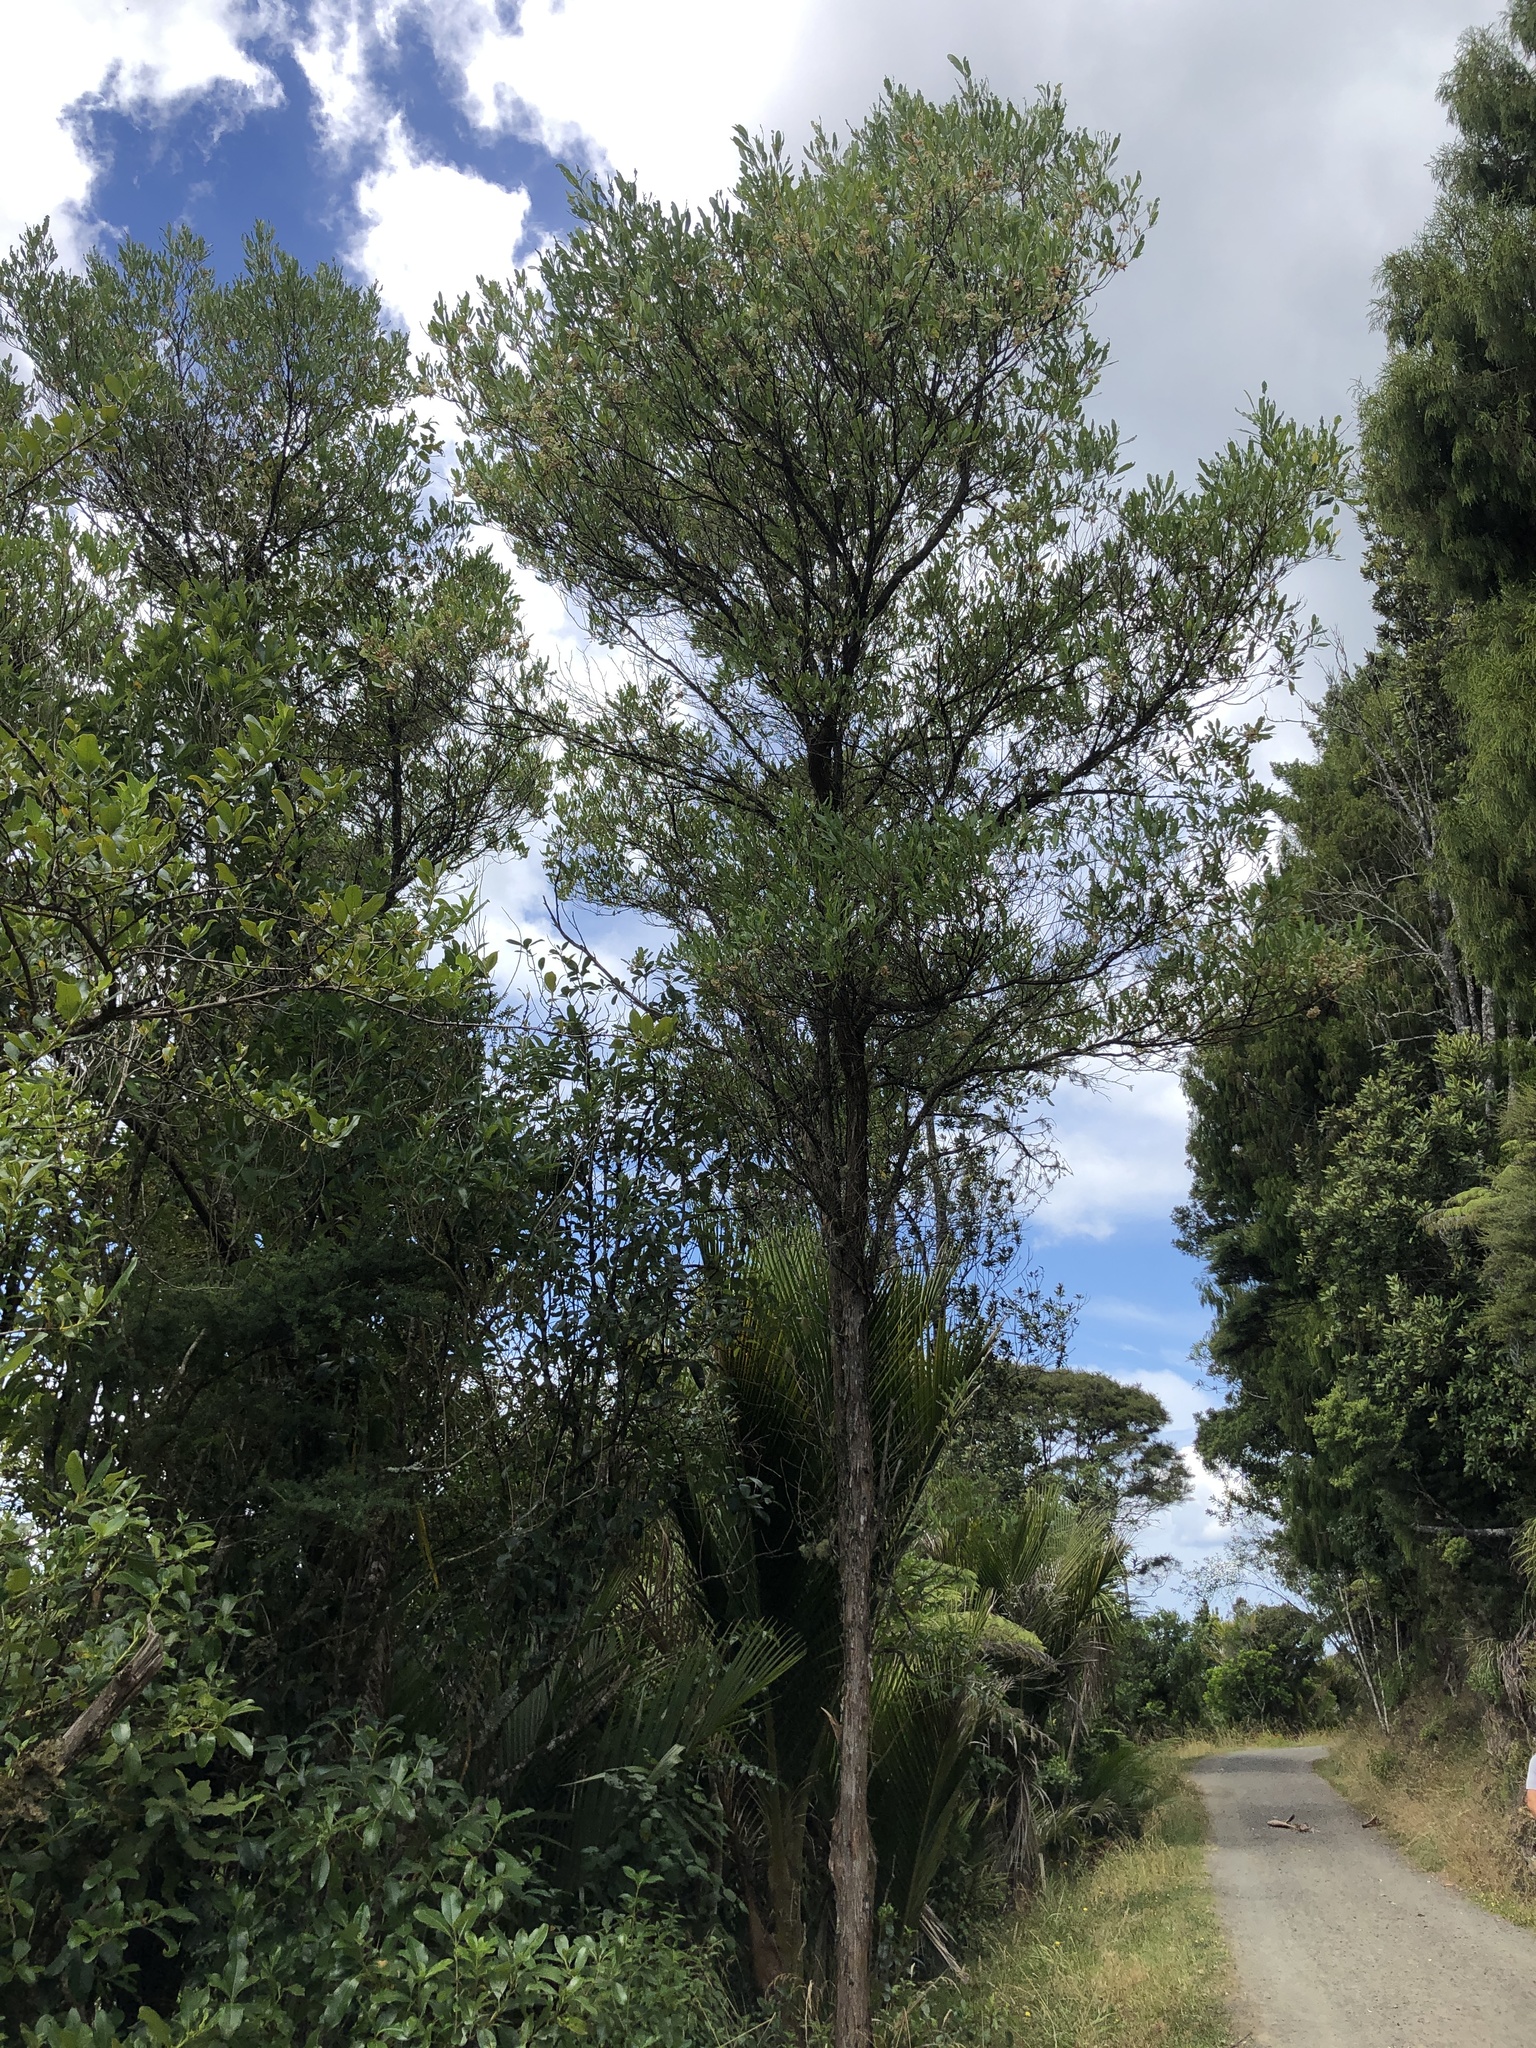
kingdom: Plantae
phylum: Tracheophyta
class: Magnoliopsida
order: Sapindales
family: Sapindaceae
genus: Dodonaea
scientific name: Dodonaea viscosa
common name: Hopbush
